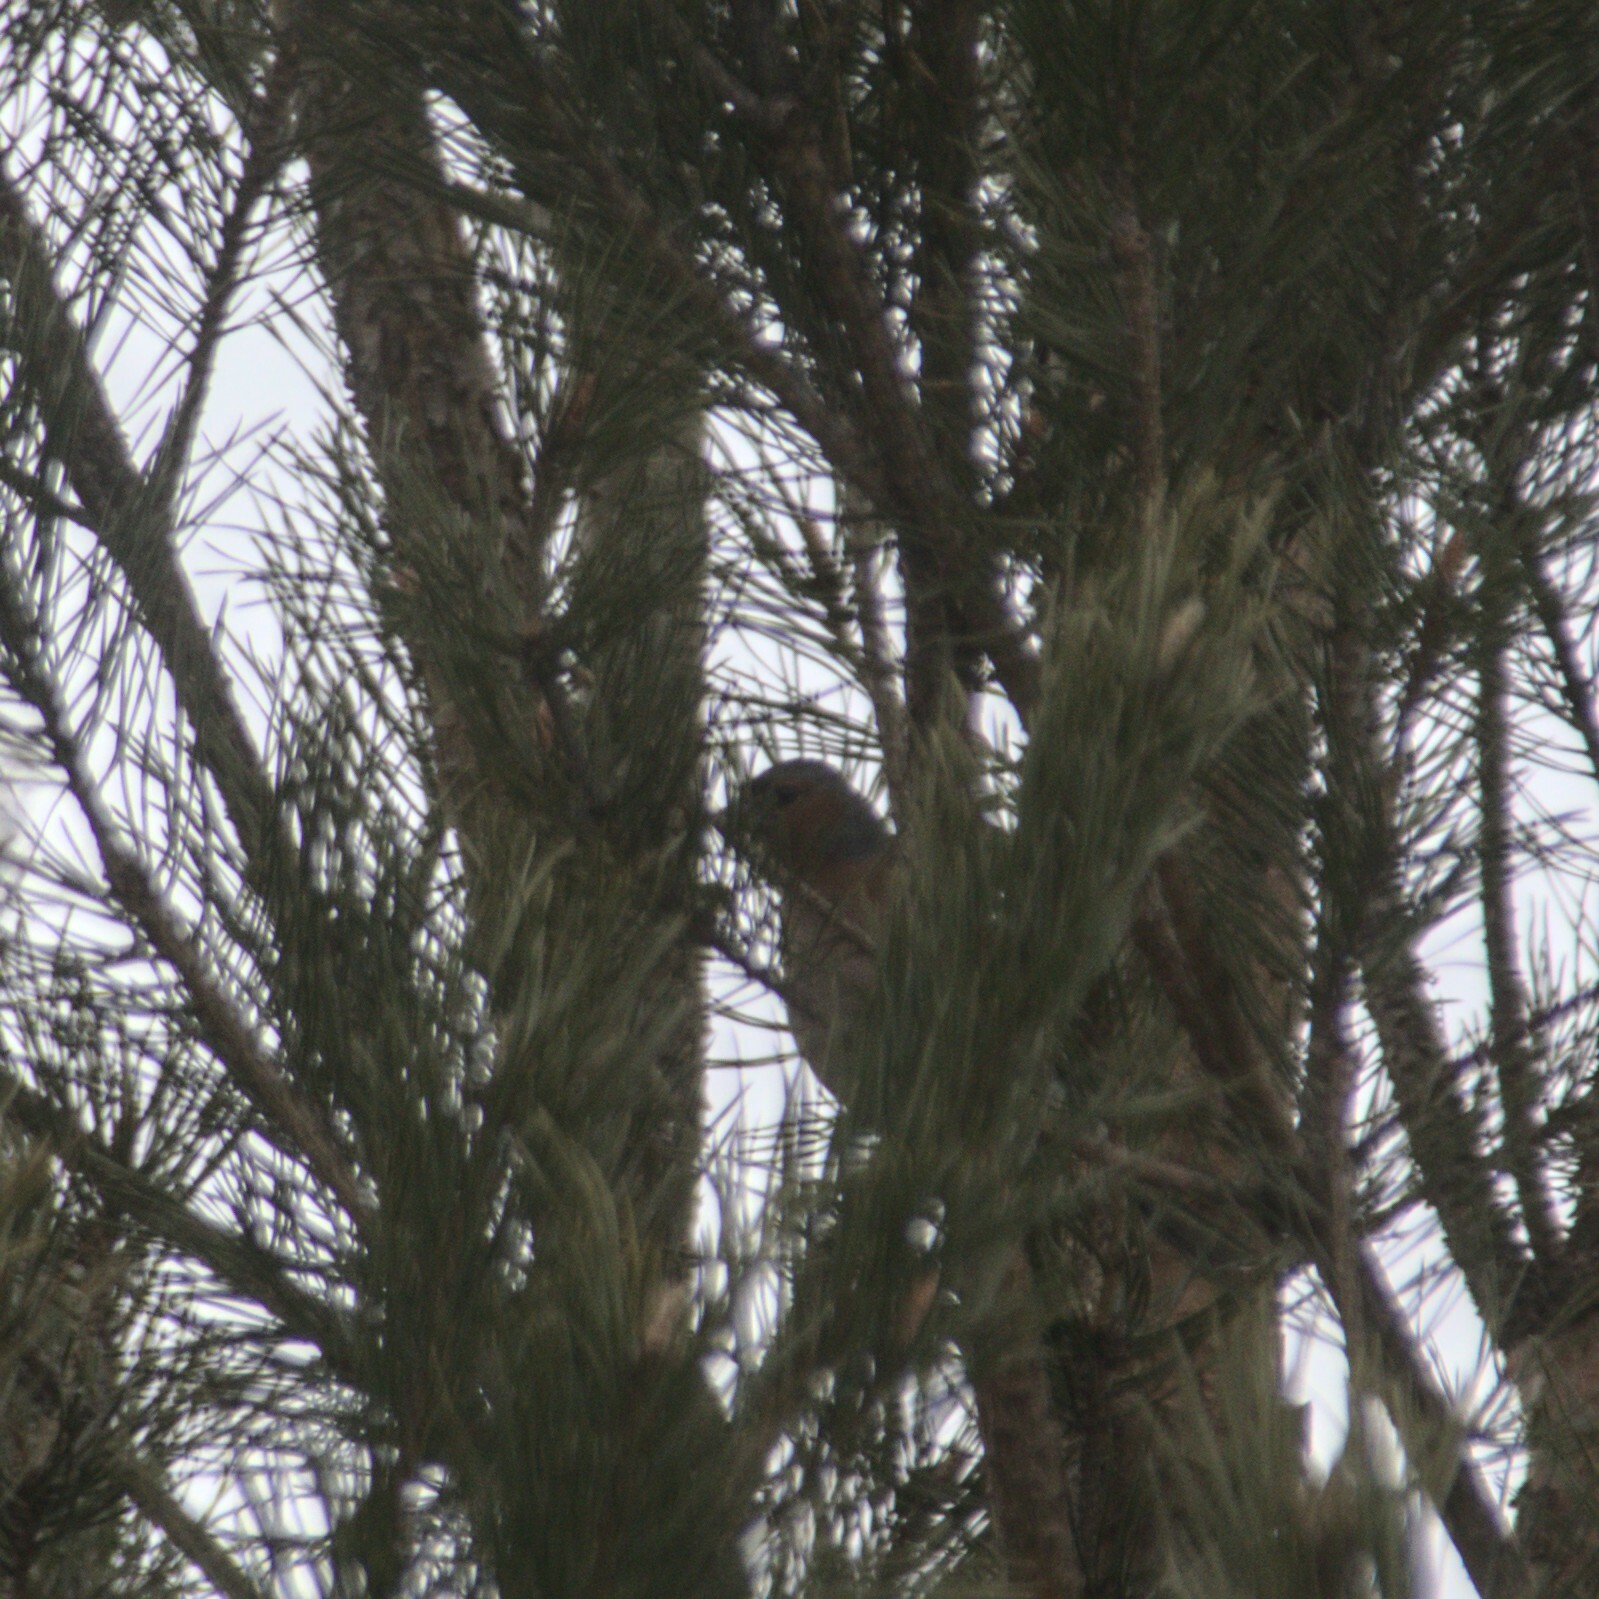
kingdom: Animalia
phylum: Chordata
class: Aves
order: Passeriformes
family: Fringillidae
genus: Fringilla
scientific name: Fringilla coelebs
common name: Common chaffinch
